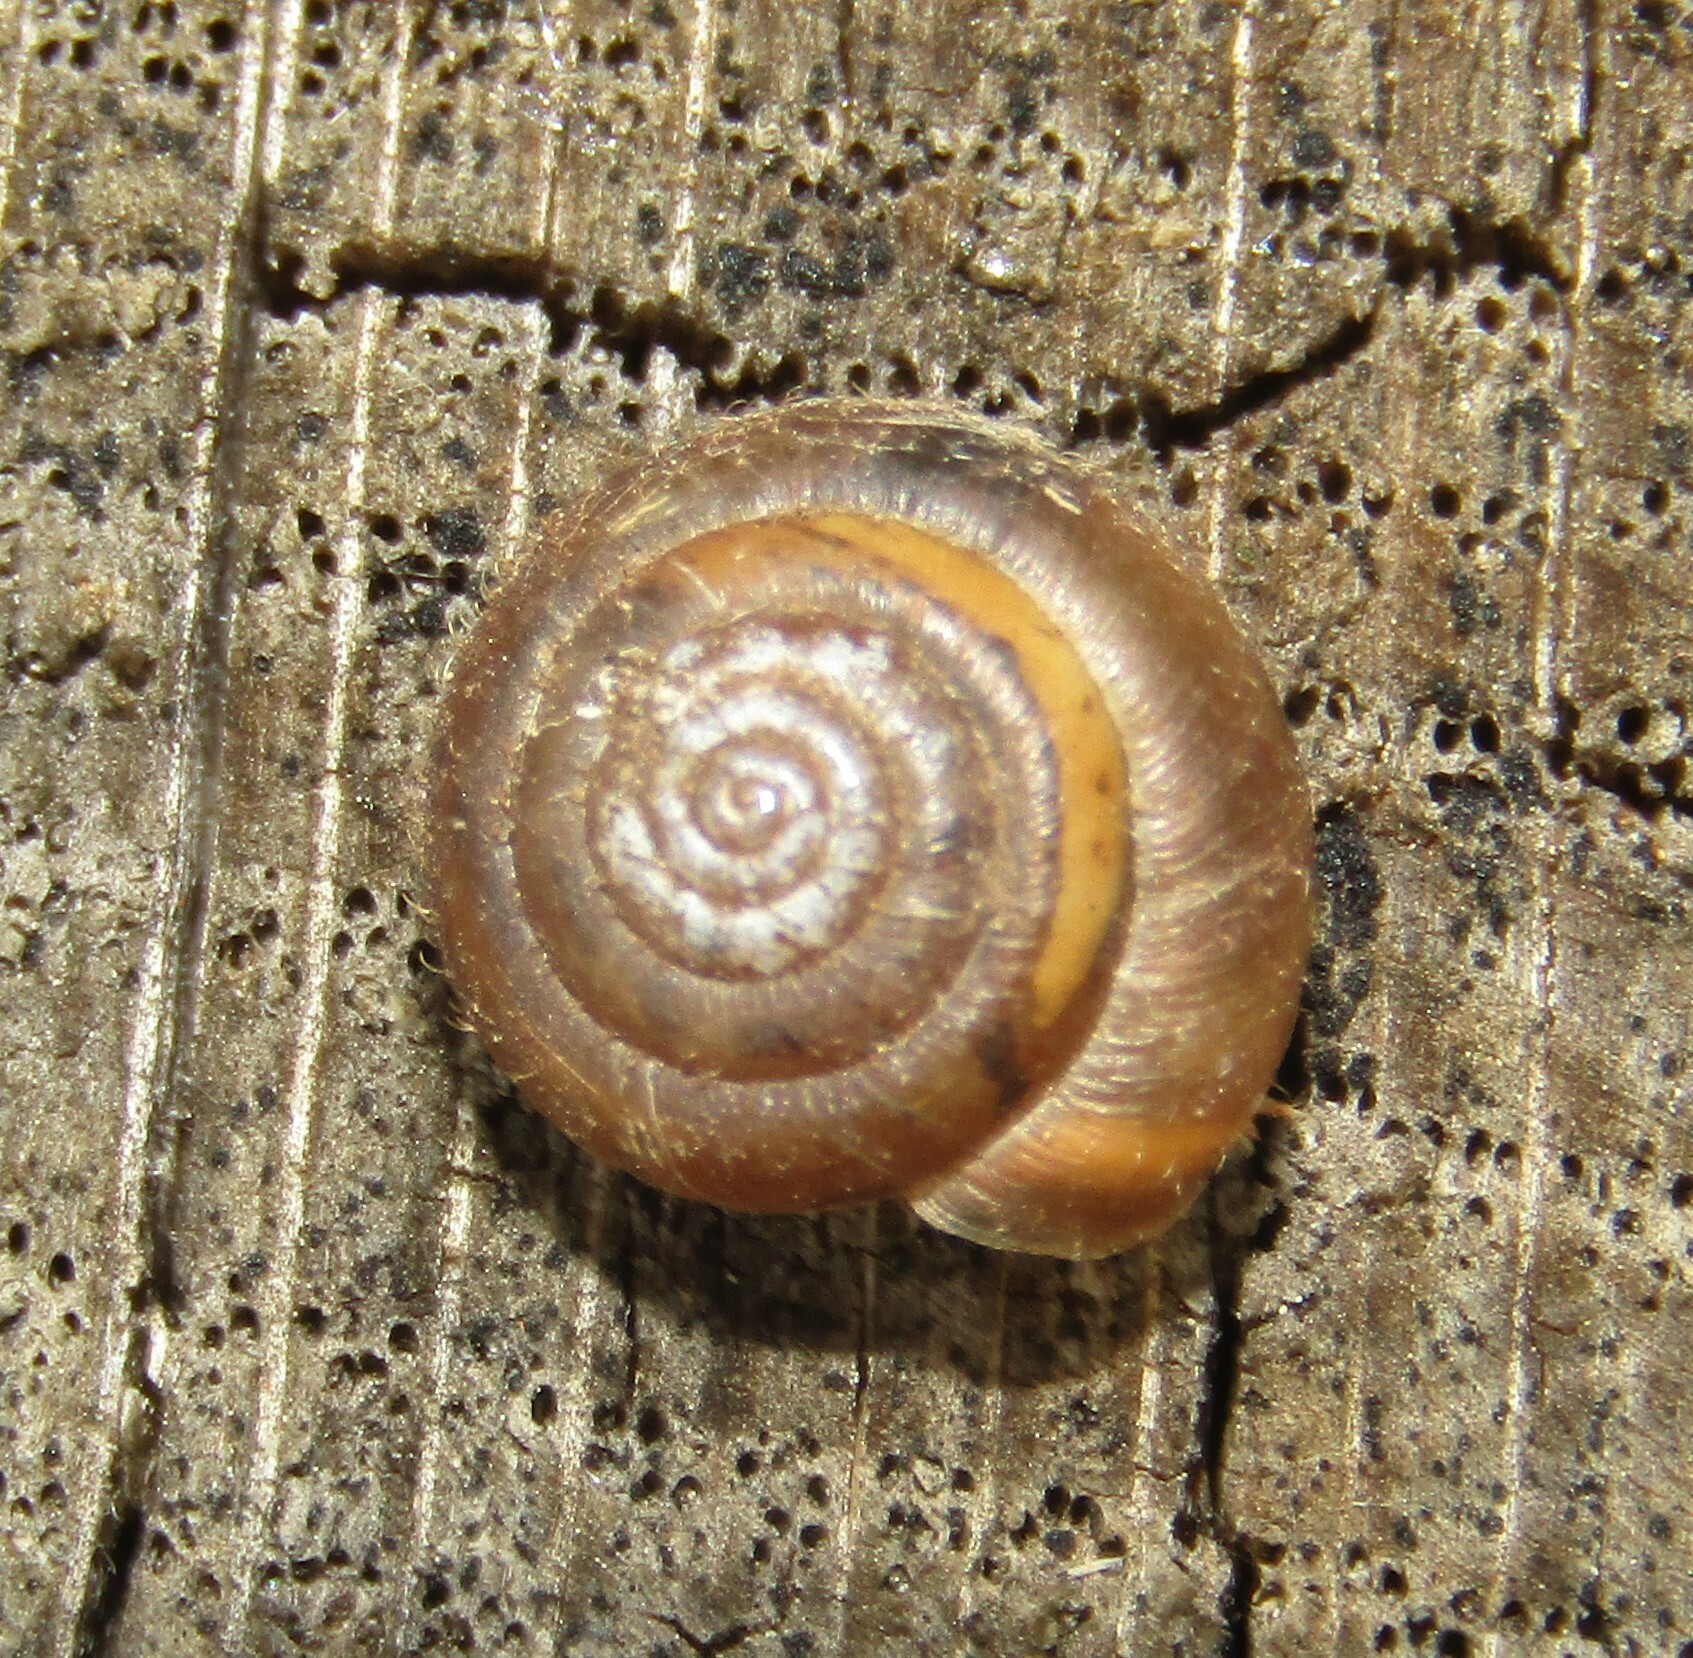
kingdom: Animalia
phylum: Mollusca
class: Gastropoda
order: Stylommatophora
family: Hygromiidae
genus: Trochulus
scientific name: Trochulus hispidus
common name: Hairy snail
